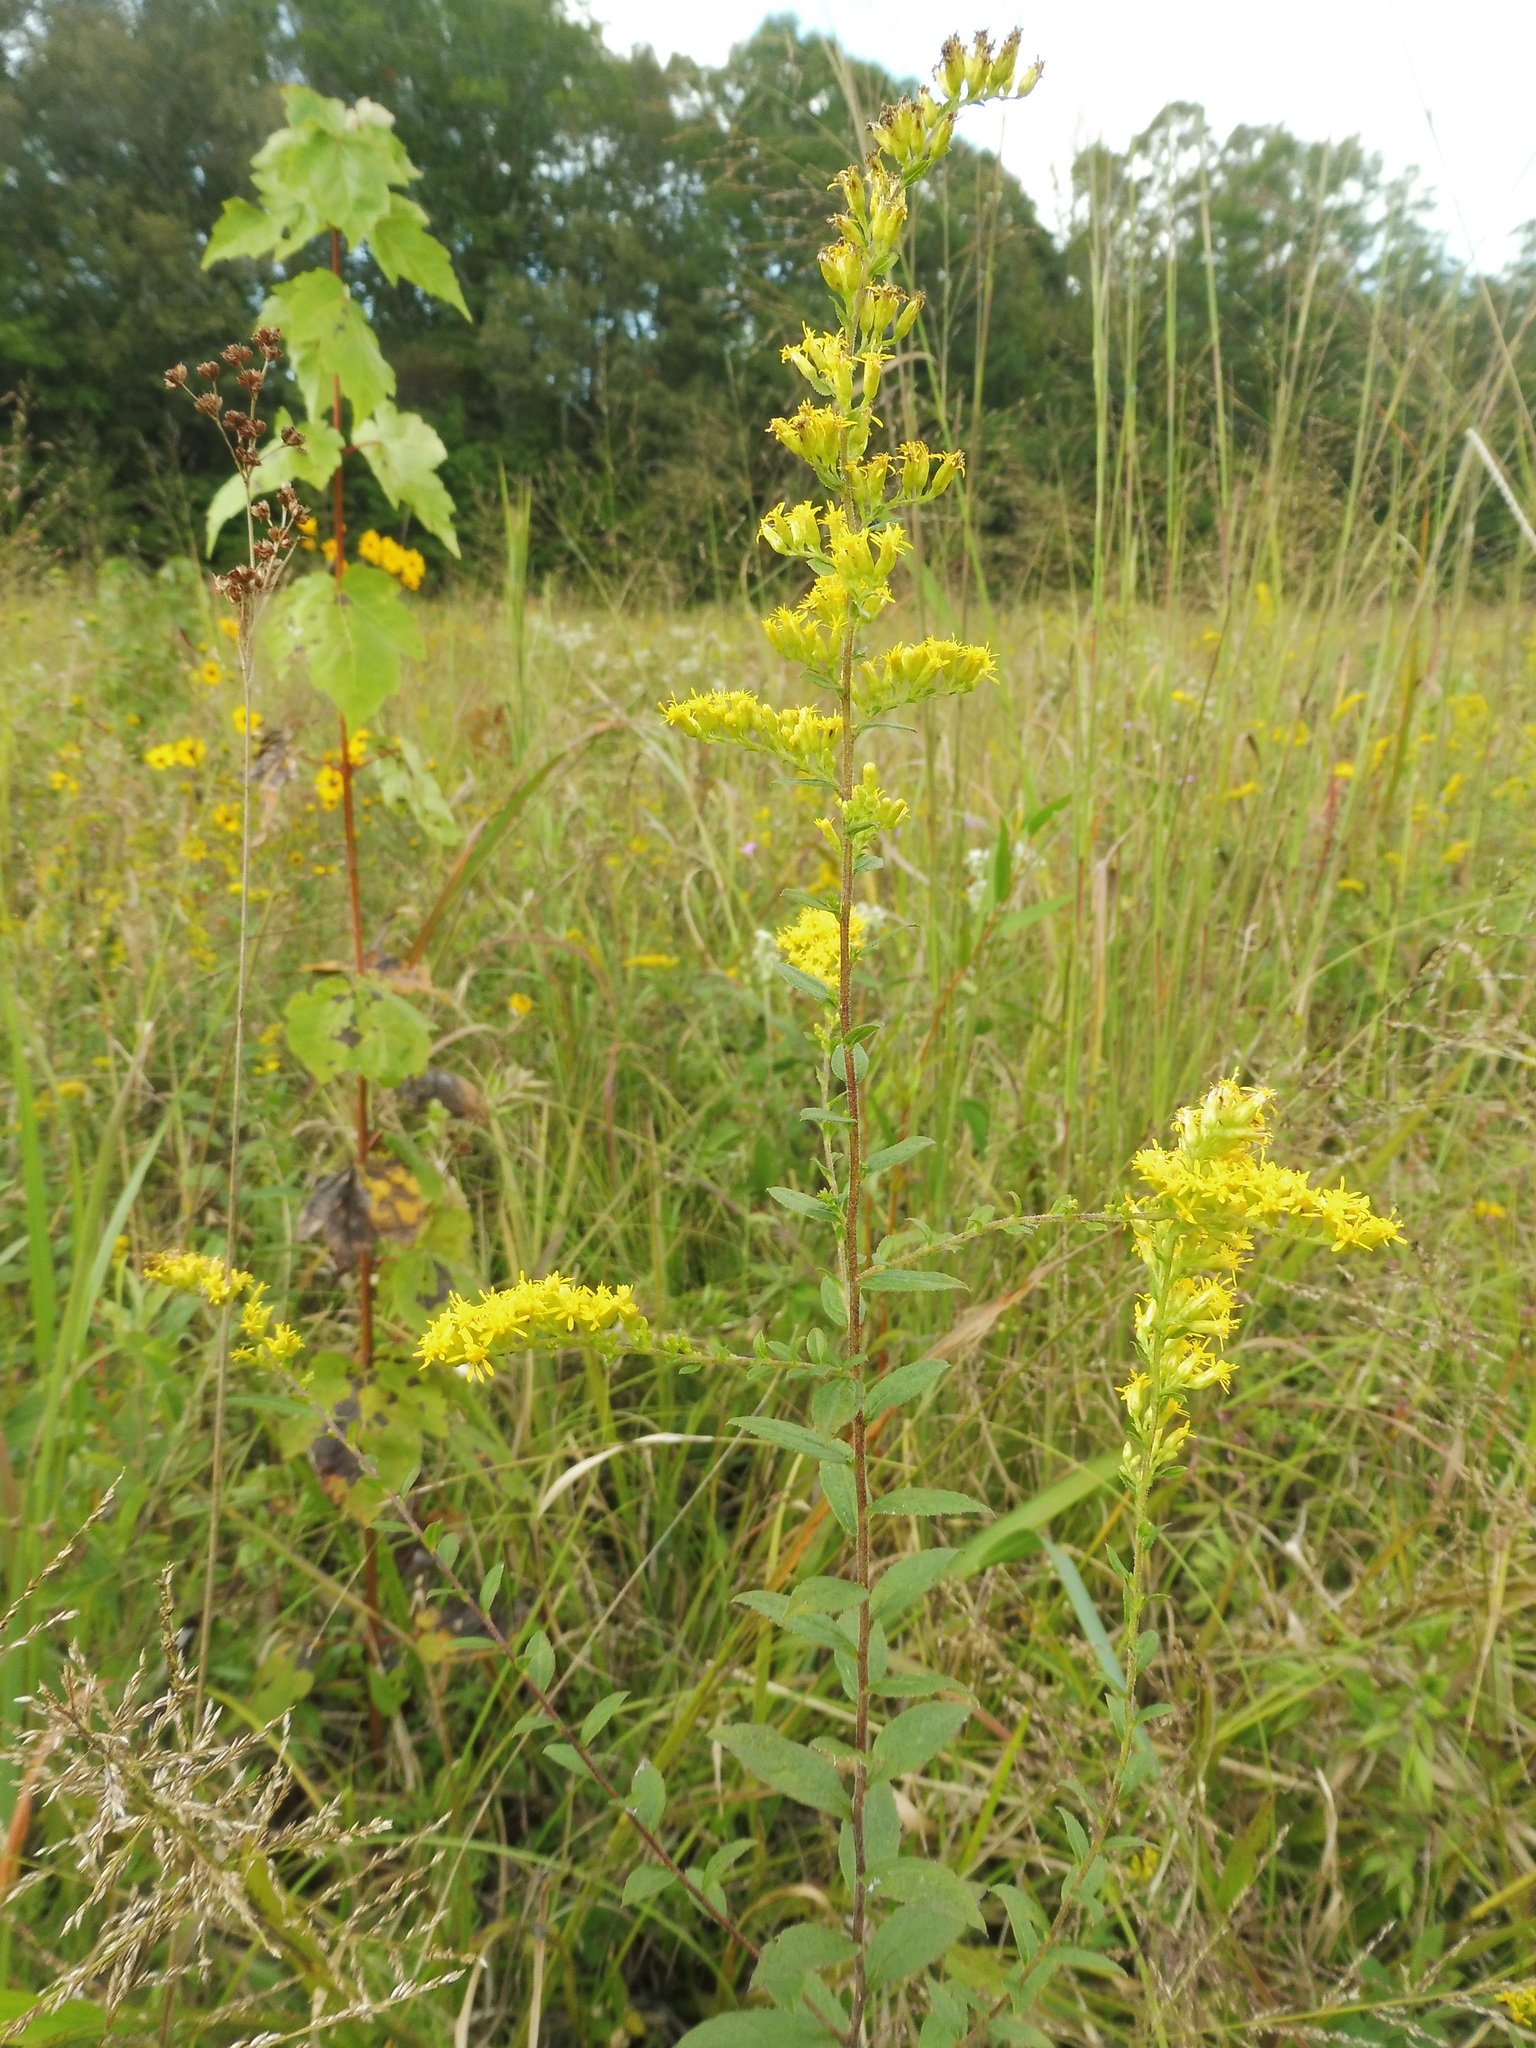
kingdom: Plantae
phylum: Tracheophyta
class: Magnoliopsida
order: Asterales
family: Asteraceae
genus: Solidago
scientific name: Solidago rugosa
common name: Rough-stemmed goldenrod
